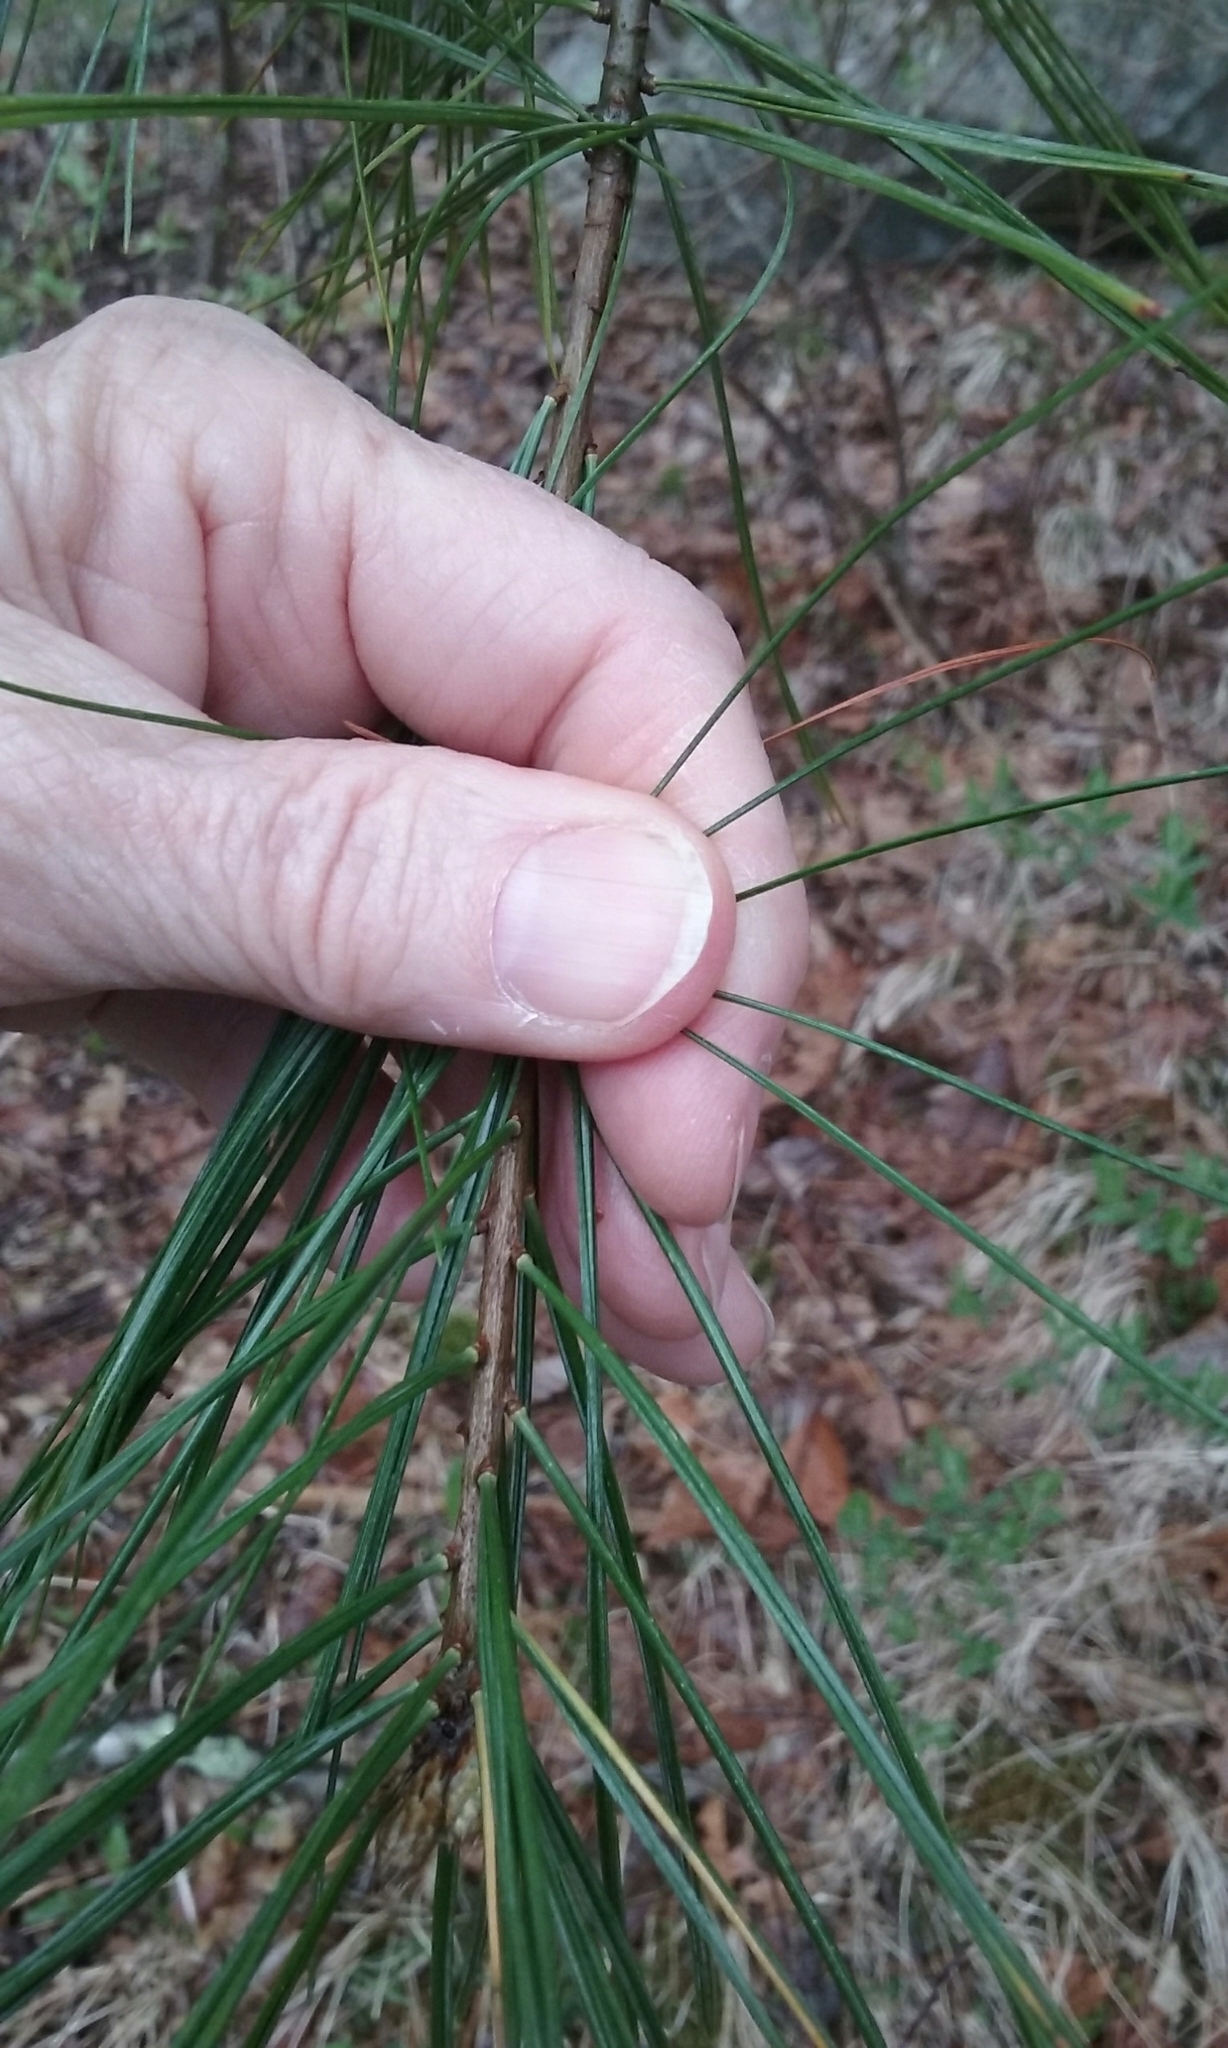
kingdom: Plantae
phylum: Tracheophyta
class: Pinopsida
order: Pinales
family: Pinaceae
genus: Pinus
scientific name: Pinus strobus
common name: Weymouth pine
